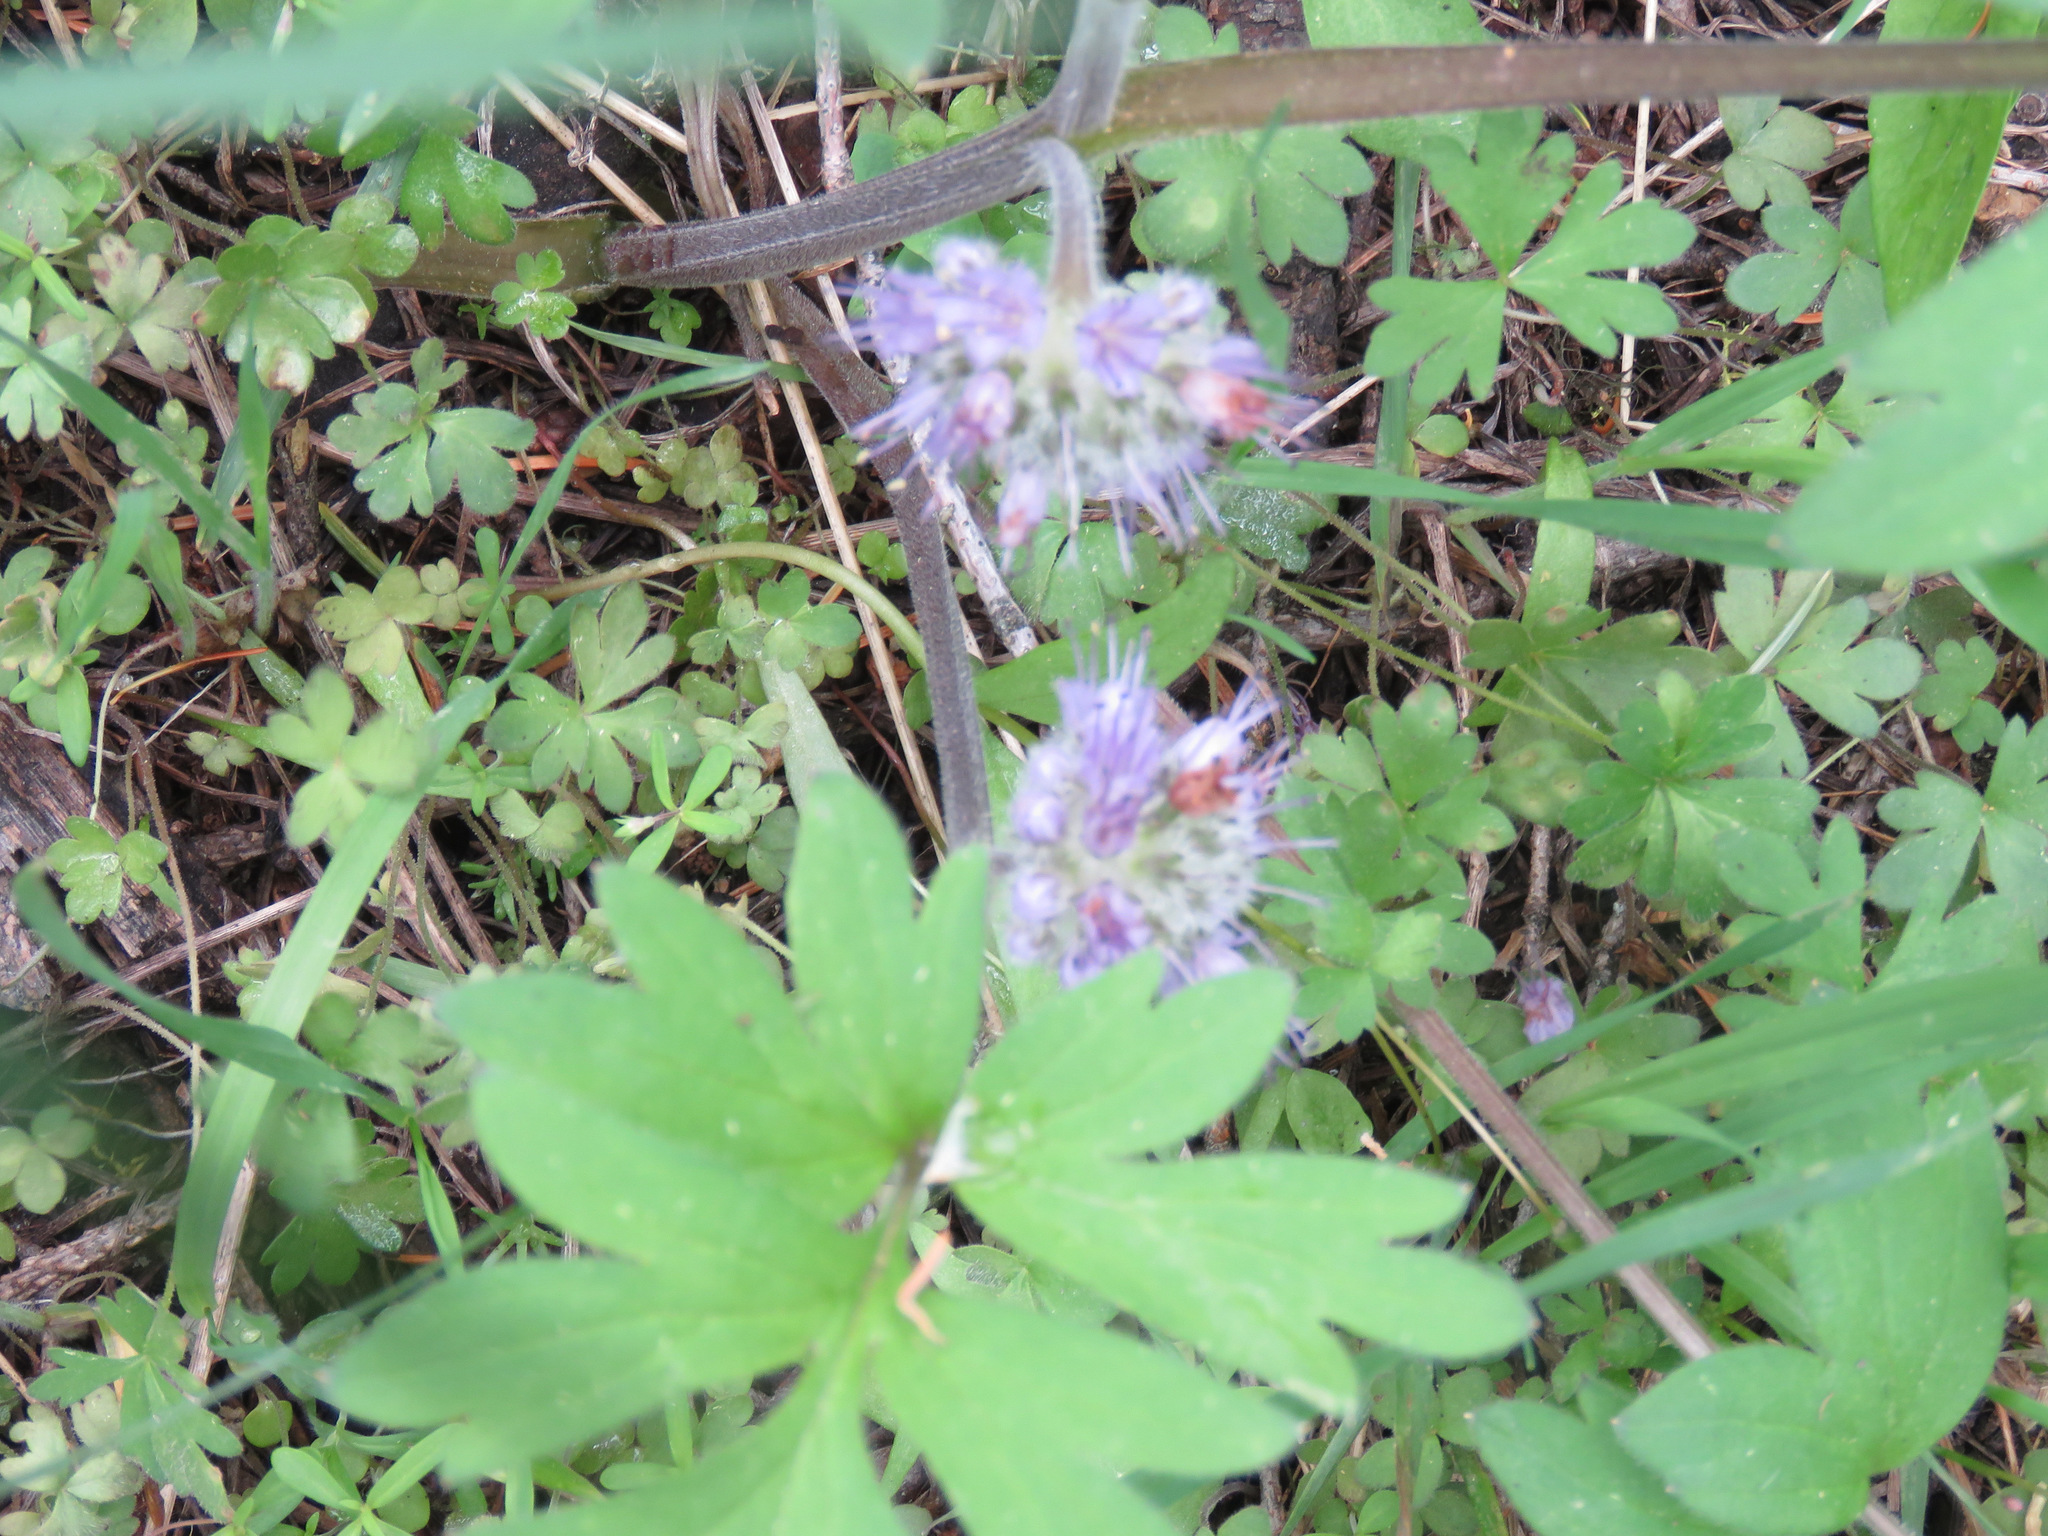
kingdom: Plantae
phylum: Tracheophyta
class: Magnoliopsida
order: Boraginales
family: Hydrophyllaceae
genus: Hydrophyllum
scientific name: Hydrophyllum capitatum
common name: Woollen-breeches
